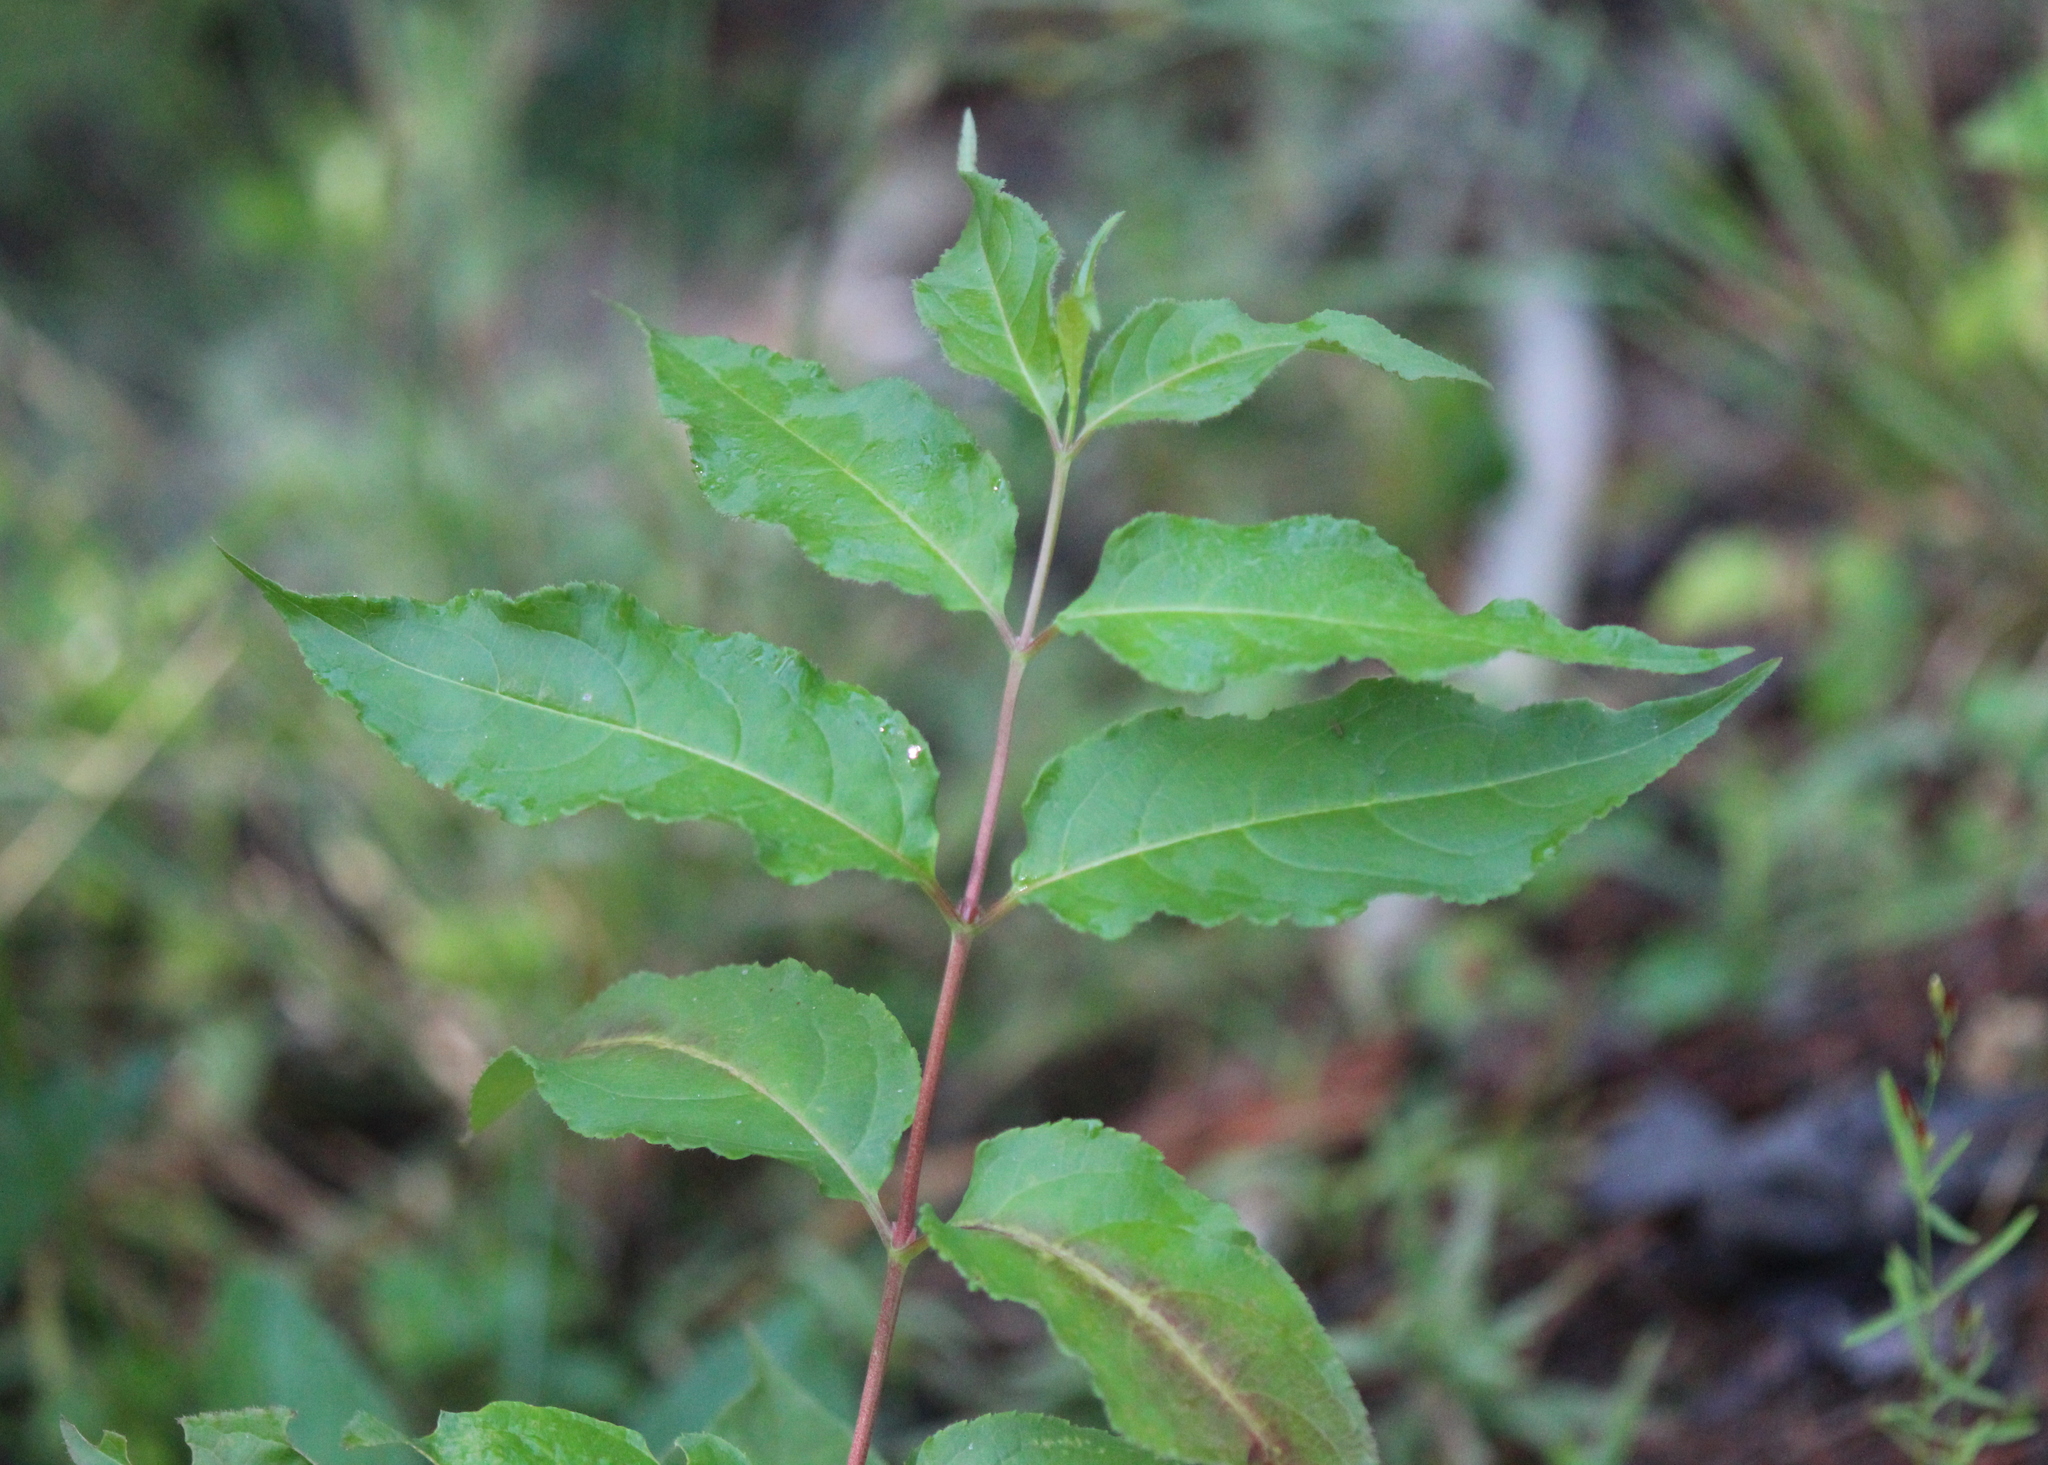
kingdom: Plantae
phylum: Tracheophyta
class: Magnoliopsida
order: Dipsacales
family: Caprifoliaceae
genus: Diervilla
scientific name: Diervilla lonicera
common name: Bush-honeysuckle
